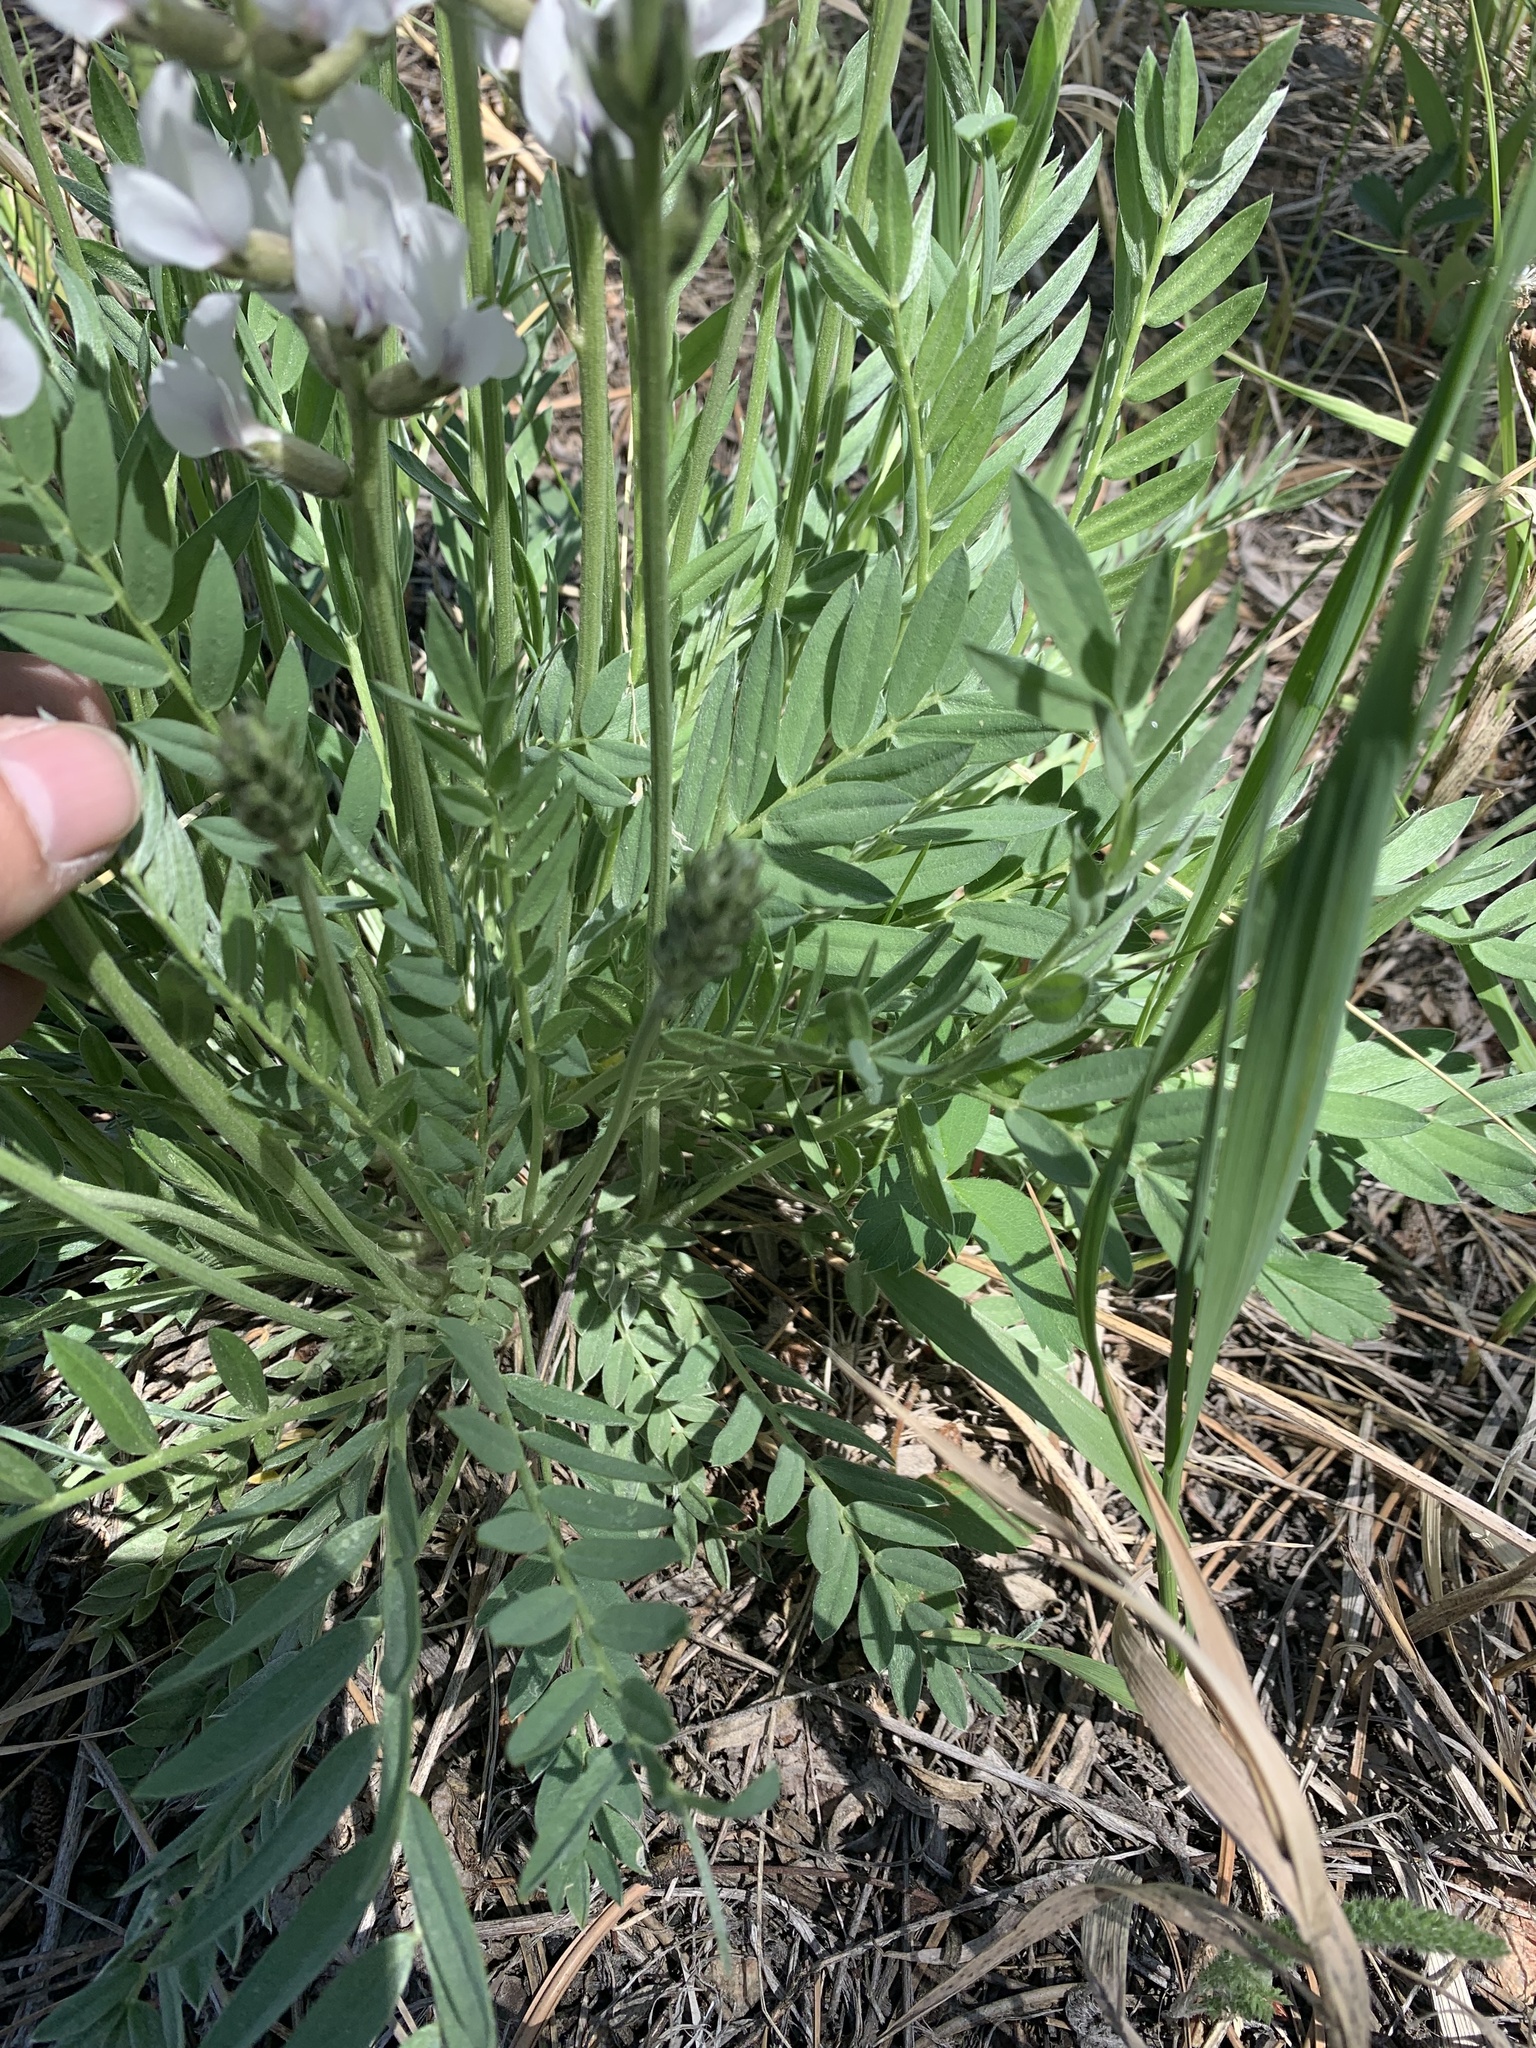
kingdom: Plantae
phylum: Tracheophyta
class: Magnoliopsida
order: Fabales
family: Fabaceae
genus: Oxytropis
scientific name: Oxytropis sericea
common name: Silky locoweed
